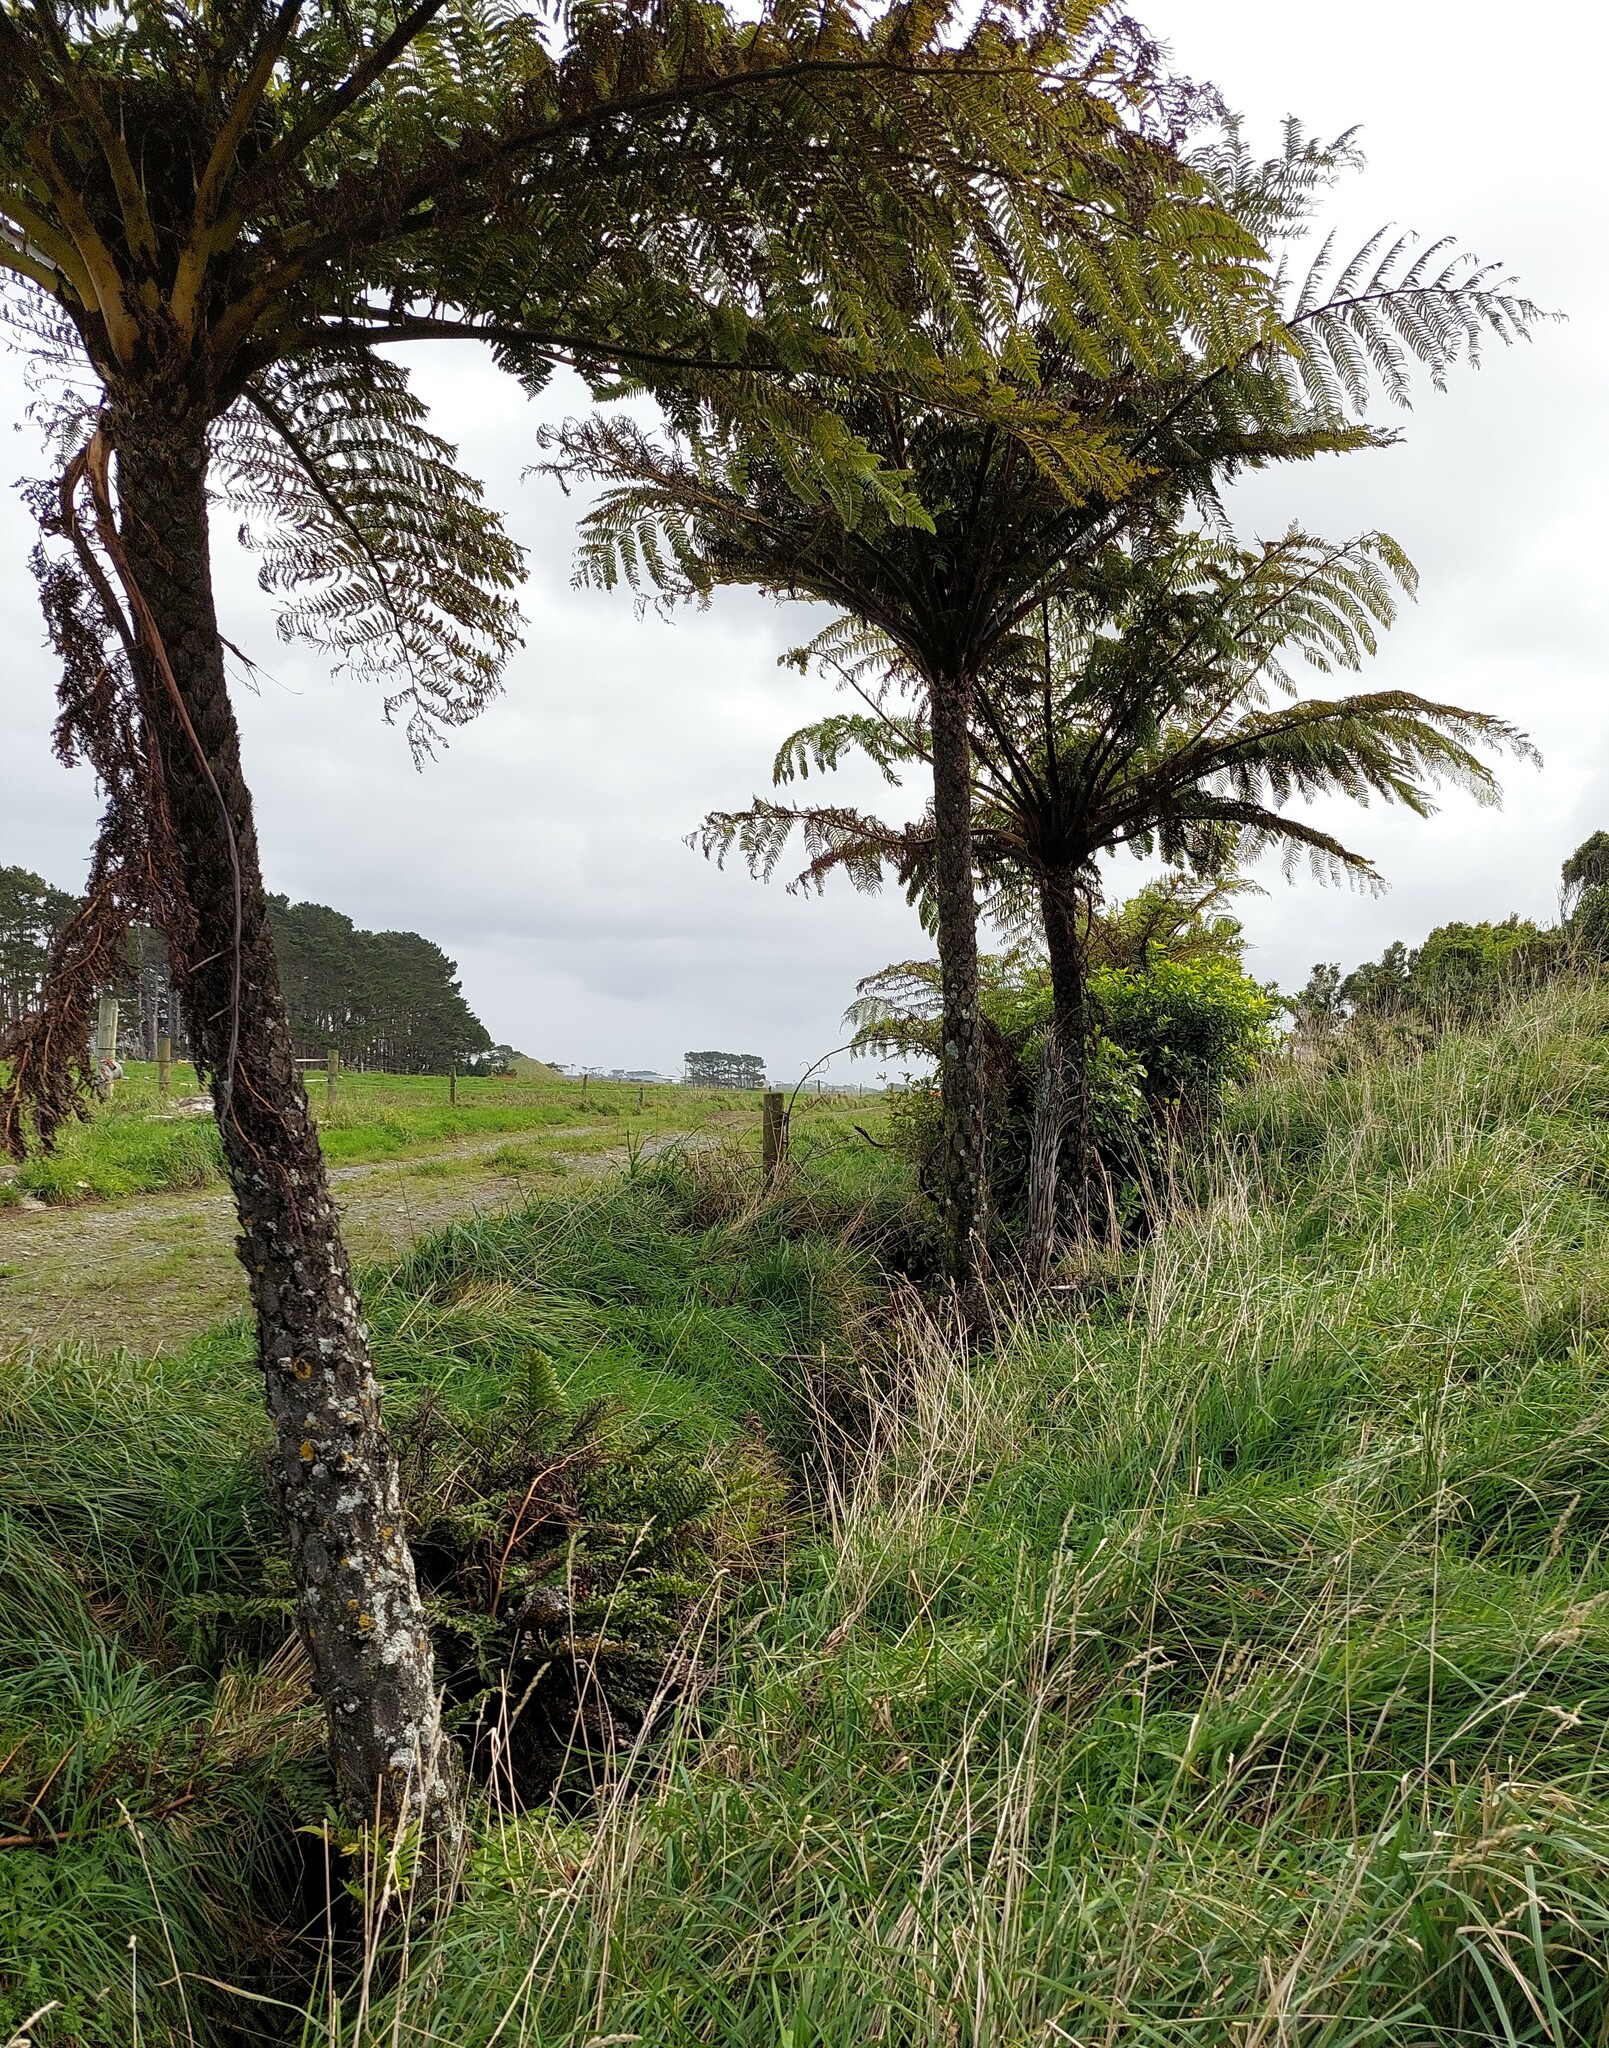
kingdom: Plantae
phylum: Tracheophyta
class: Polypodiopsida
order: Cyatheales
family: Cyatheaceae
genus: Sphaeropteris
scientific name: Sphaeropteris medullaris
